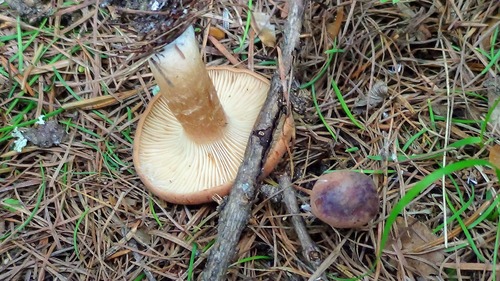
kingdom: Fungi
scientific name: Fungi
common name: Fungi
